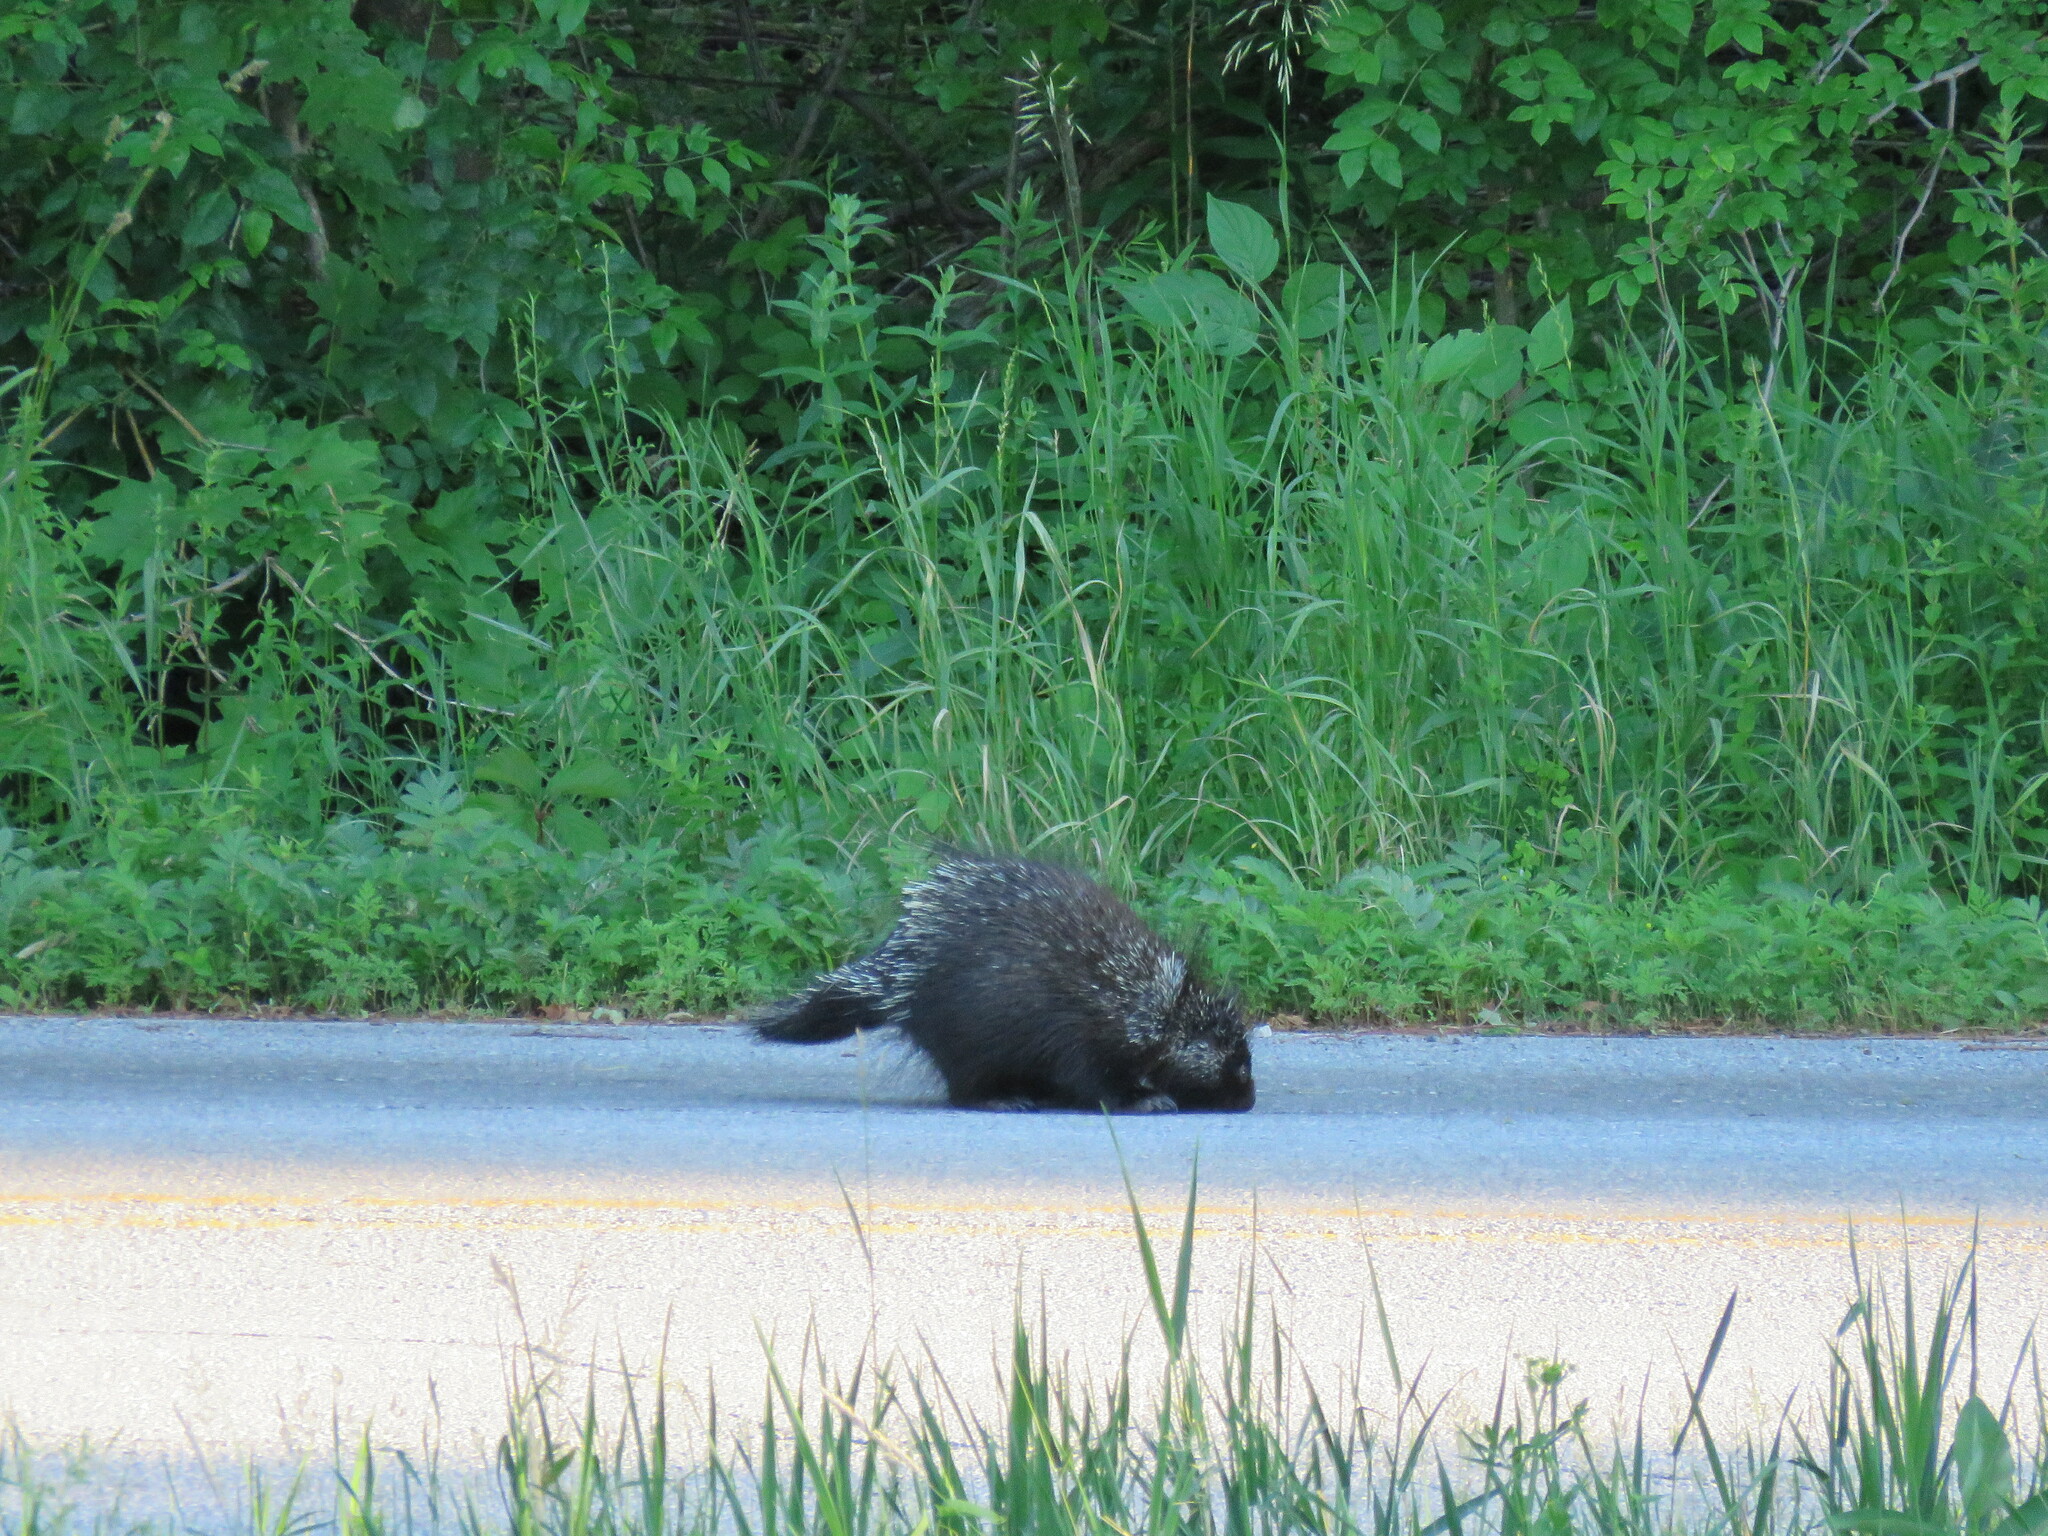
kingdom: Animalia
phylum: Chordata
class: Mammalia
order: Rodentia
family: Erethizontidae
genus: Erethizon
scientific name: Erethizon dorsatus
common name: North american porcupine
